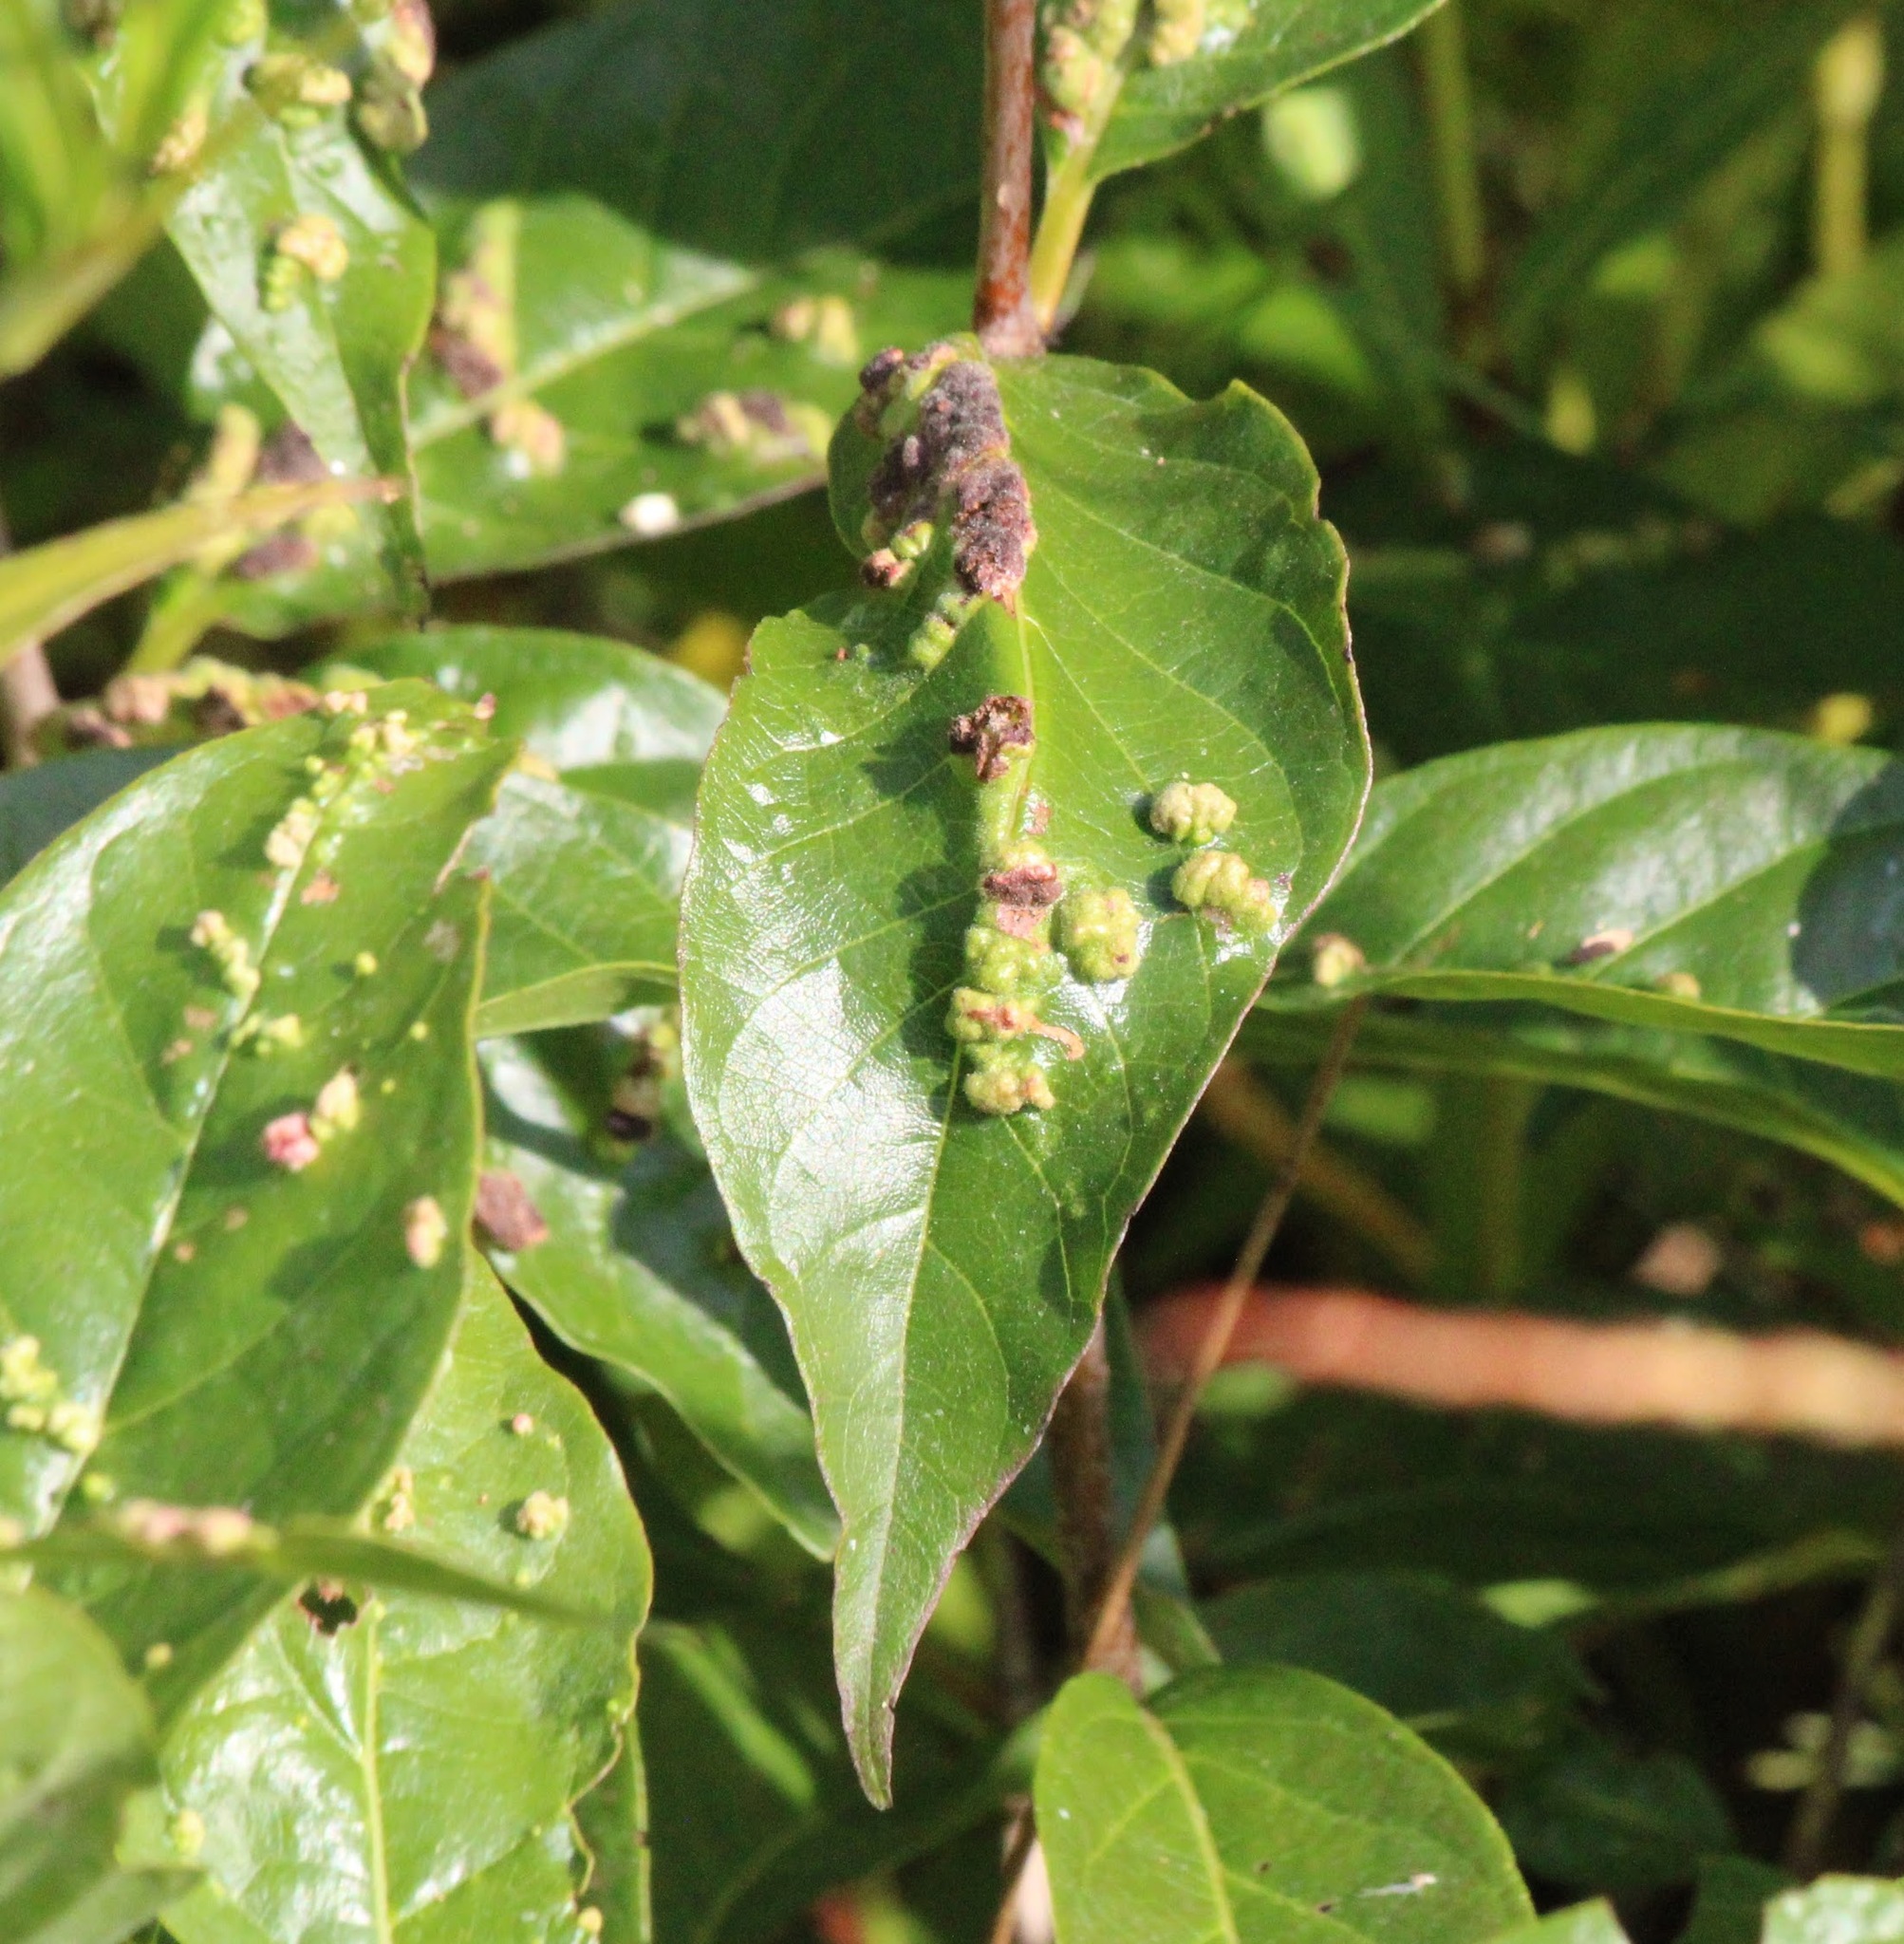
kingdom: Animalia
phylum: Arthropoda
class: Arachnida
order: Trombidiformes
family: Eriophyidae
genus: Aceria
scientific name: Aceria
